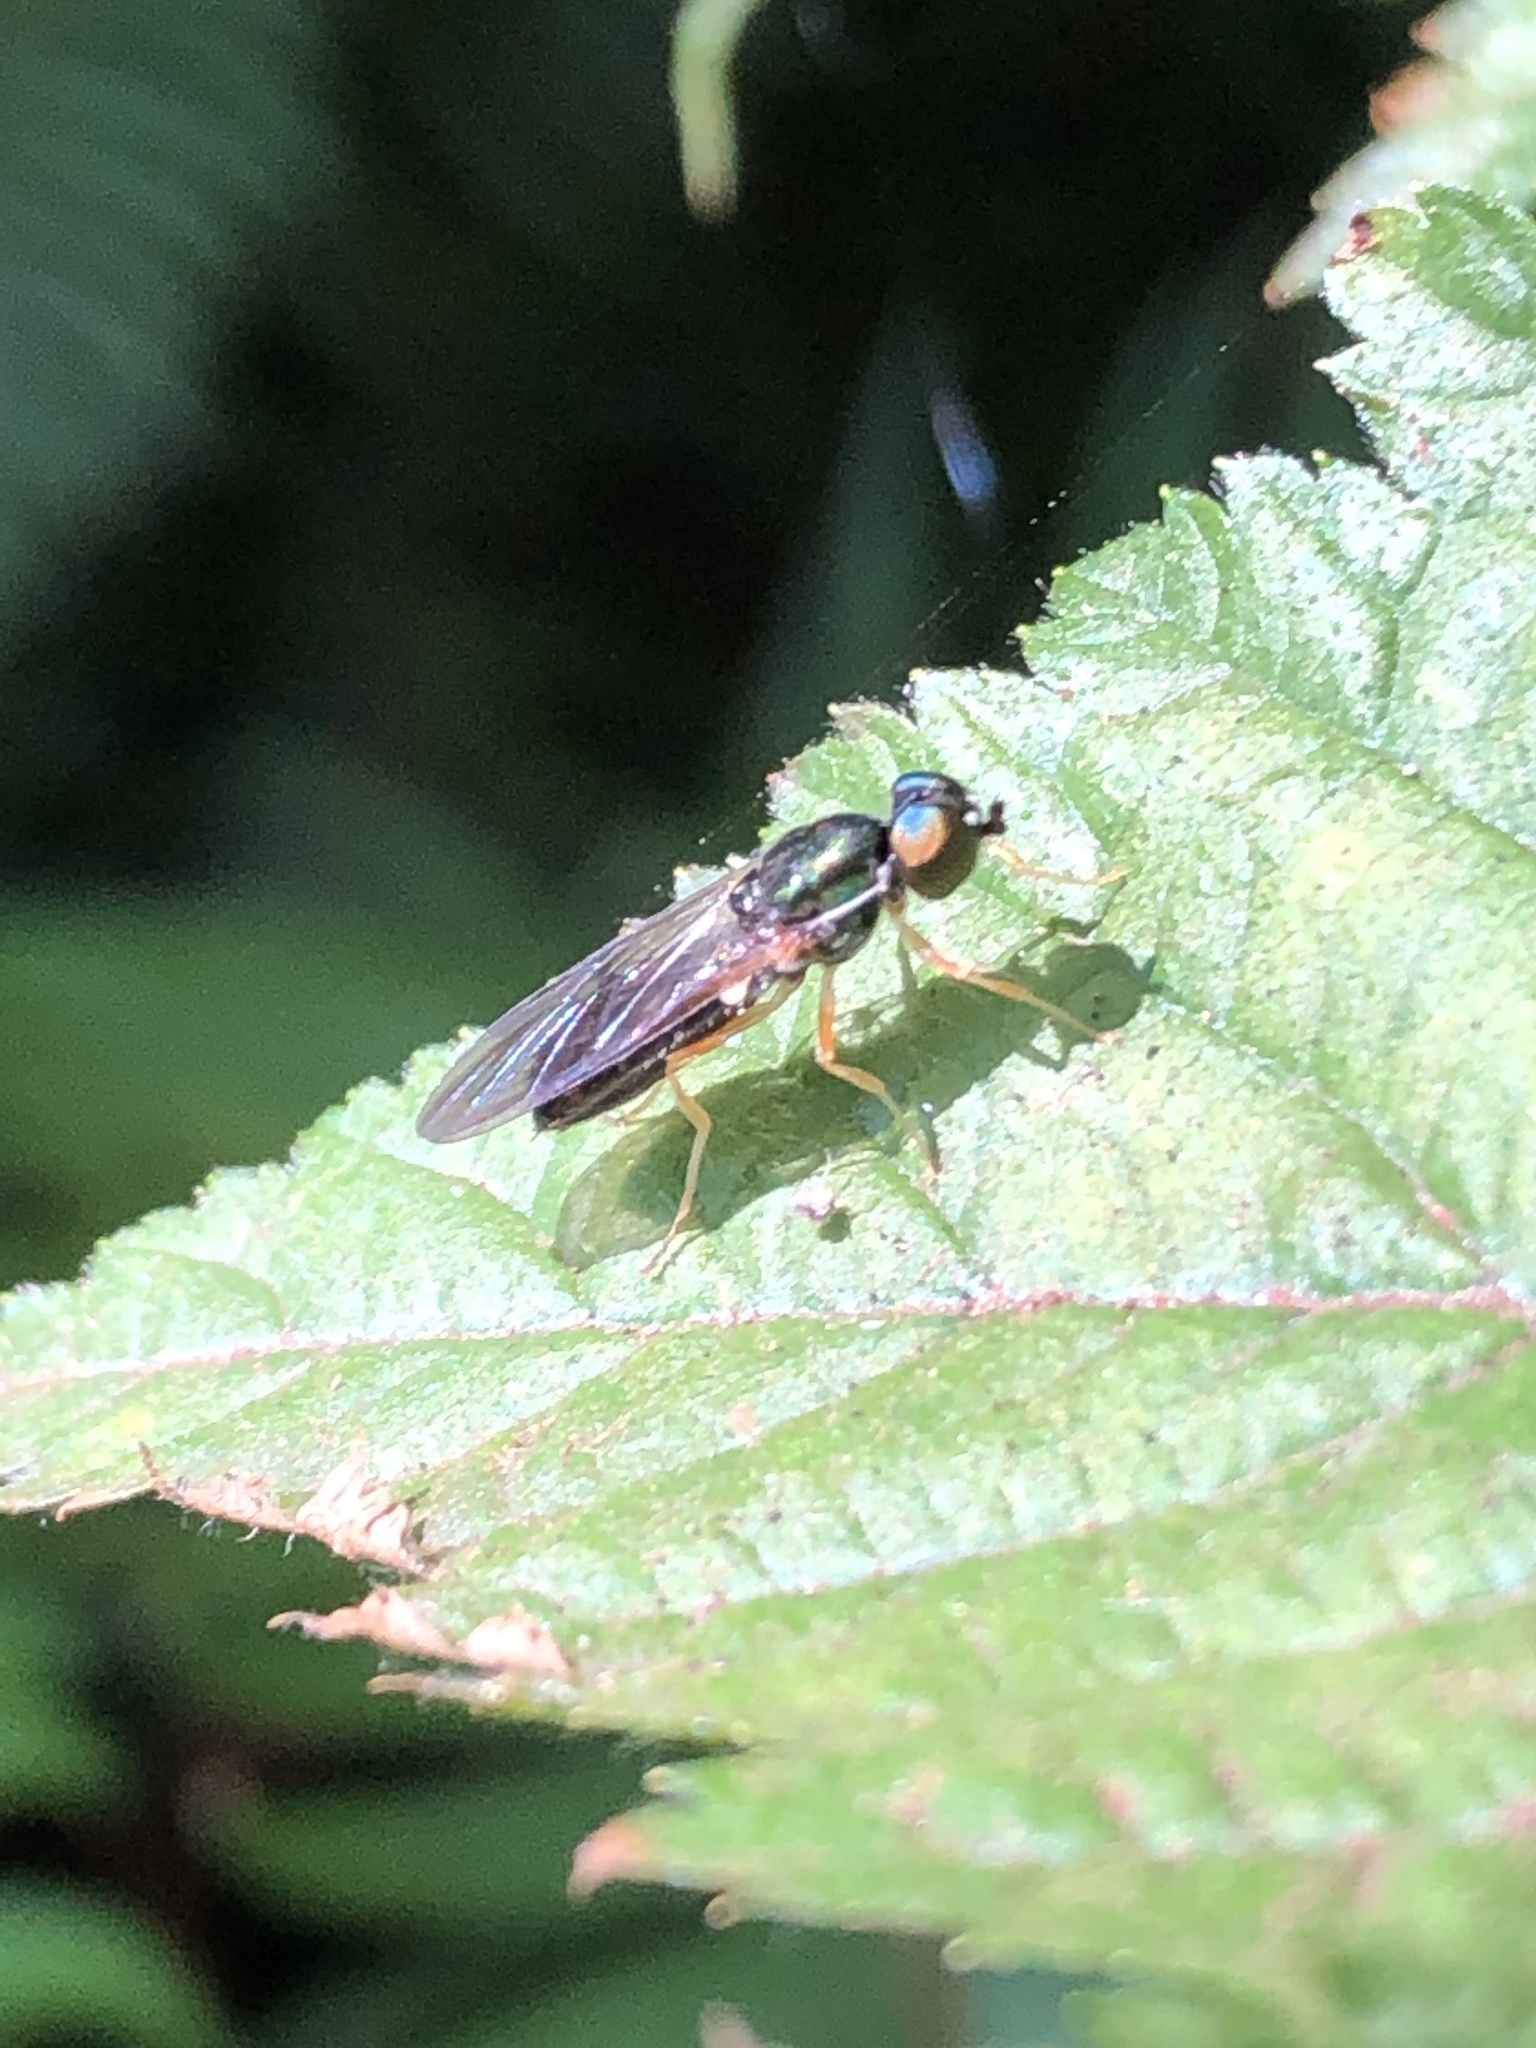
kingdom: Animalia
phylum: Arthropoda
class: Insecta
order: Diptera
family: Stratiomyidae
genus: Sargus
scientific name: Sargus bipunctatus
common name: Twin-spot centurion
